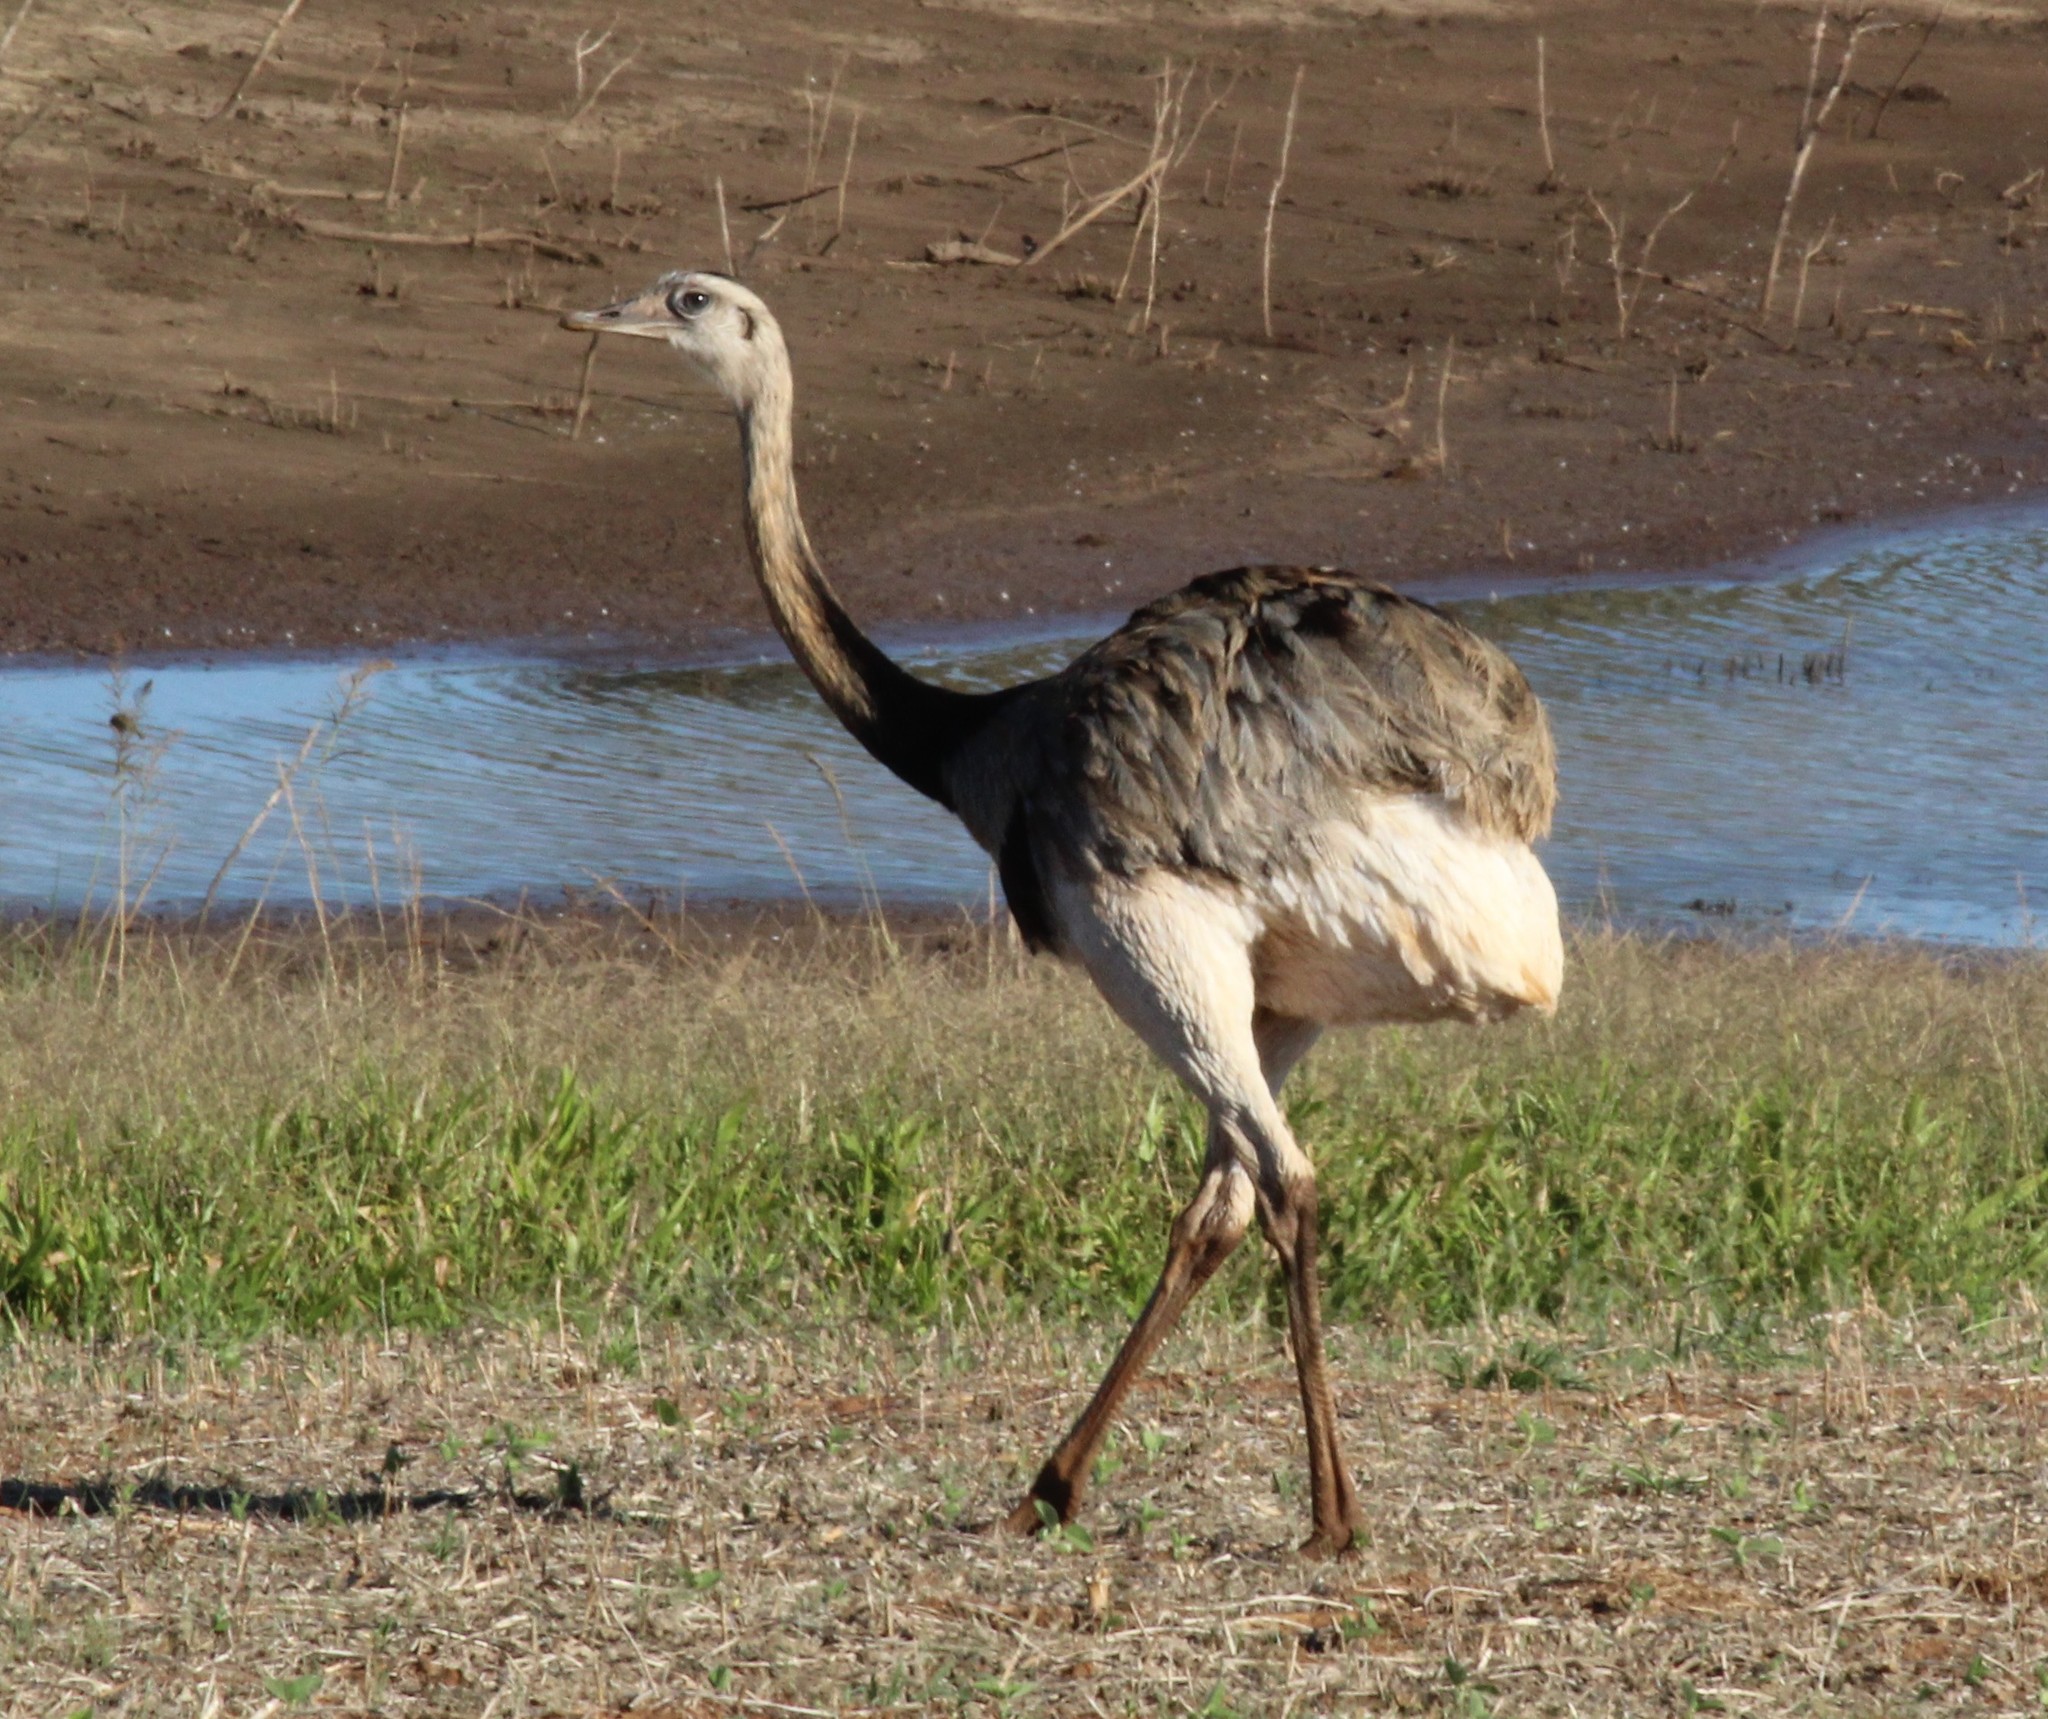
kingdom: Animalia
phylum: Chordata
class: Aves
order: Rheiformes
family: Rheidae
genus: Rhea
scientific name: Rhea americana
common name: Greater rhea
